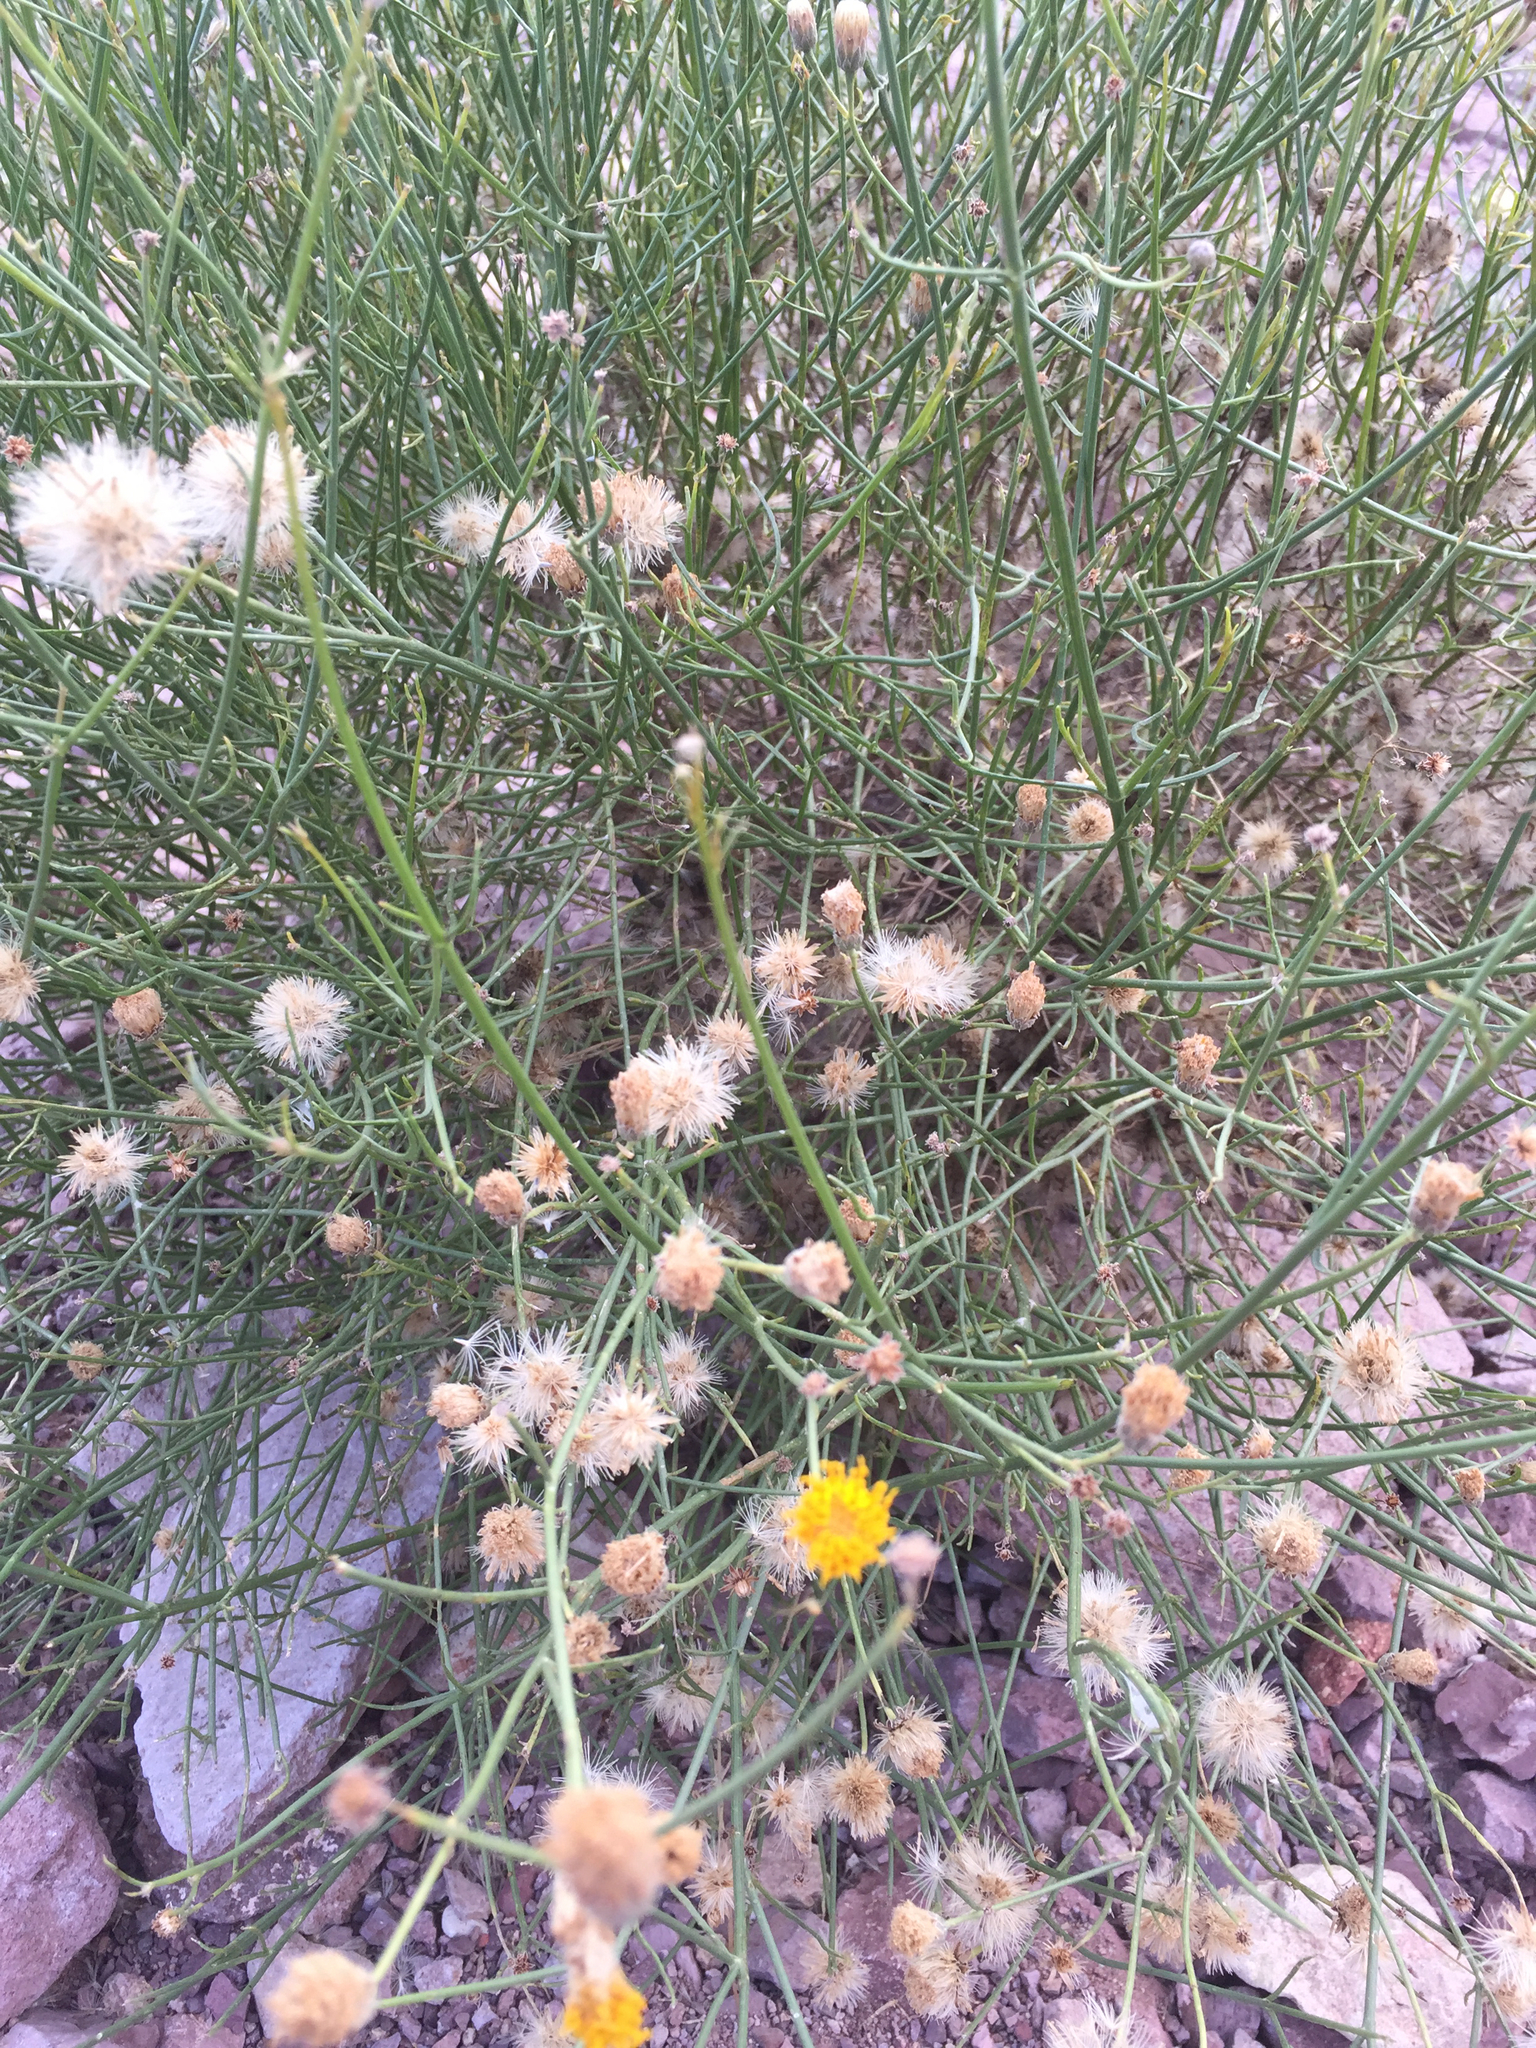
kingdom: Plantae
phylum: Tracheophyta
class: Magnoliopsida
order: Asterales
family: Asteraceae
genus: Bebbia
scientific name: Bebbia juncea
